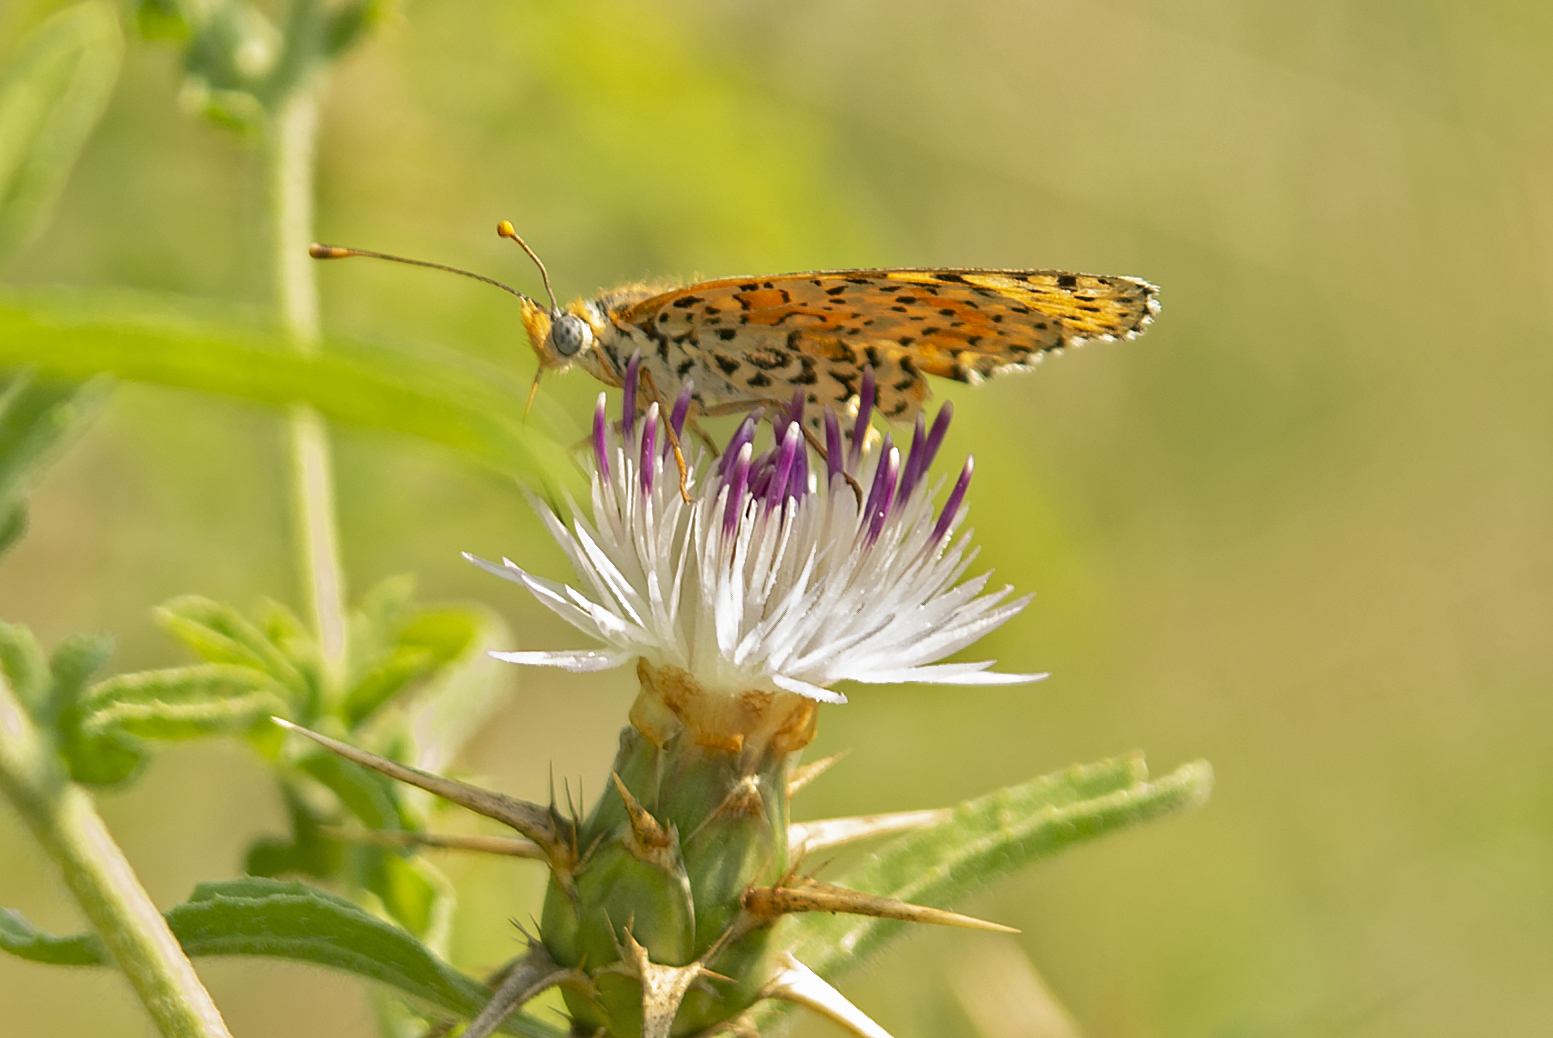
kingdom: Animalia
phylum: Arthropoda
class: Insecta
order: Lepidoptera
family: Nymphalidae
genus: Melitaea
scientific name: Melitaea didyma
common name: Spotted fritillary
